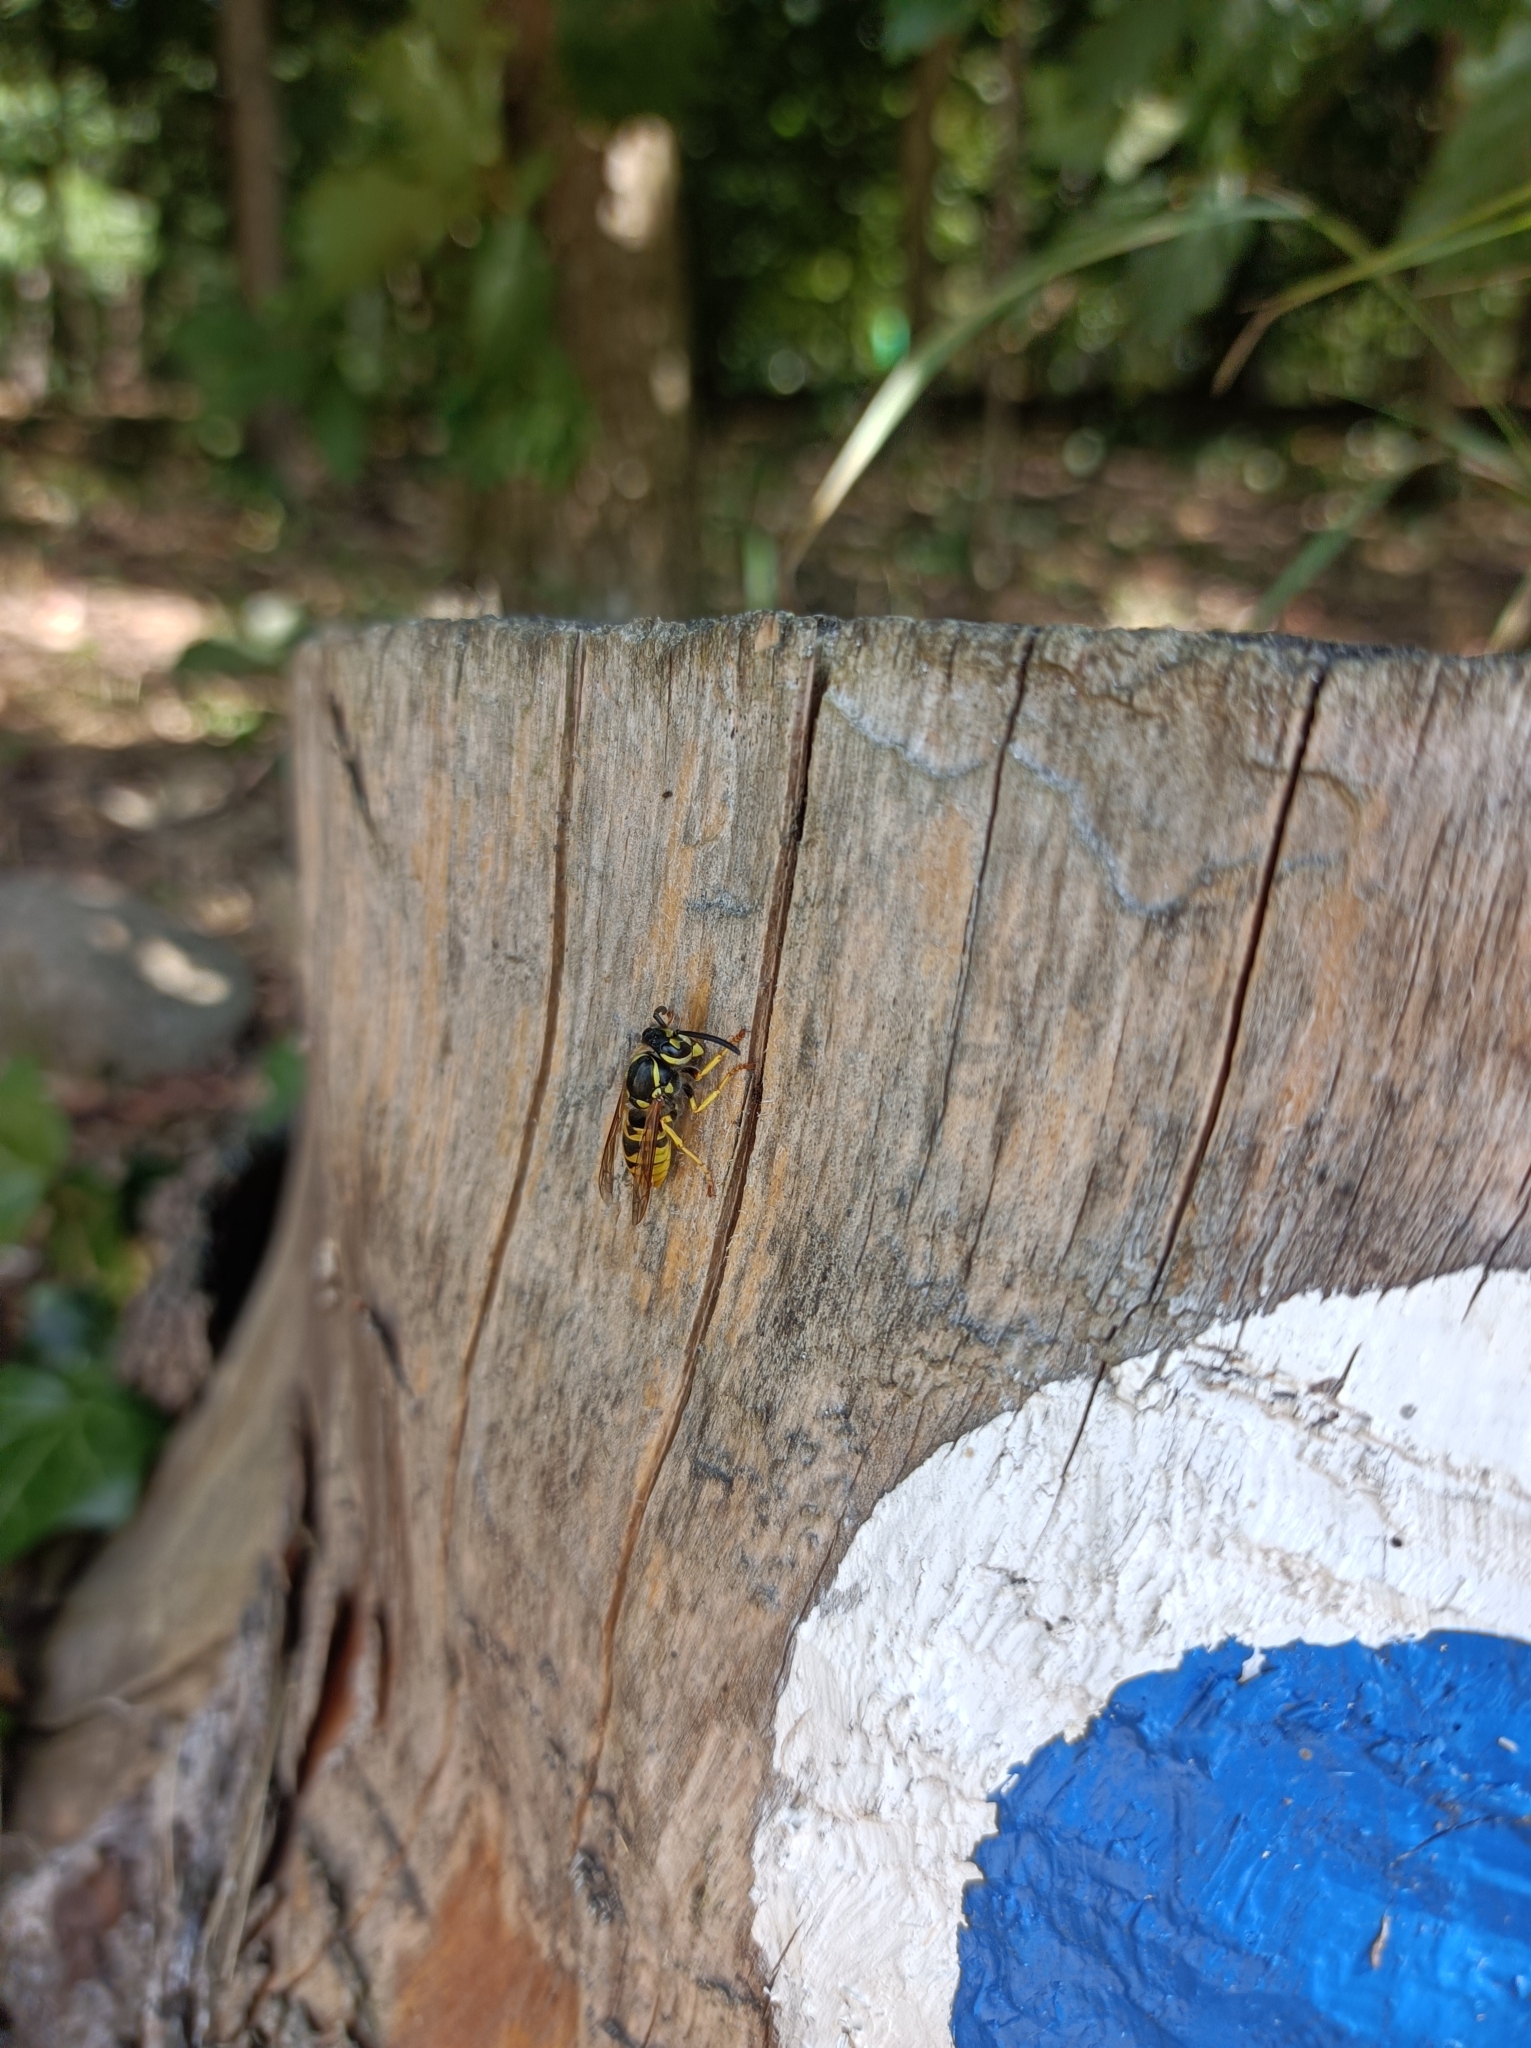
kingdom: Animalia
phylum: Arthropoda
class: Insecta
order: Hymenoptera
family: Vespidae
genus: Vespula
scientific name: Vespula germanica
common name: German wasp
